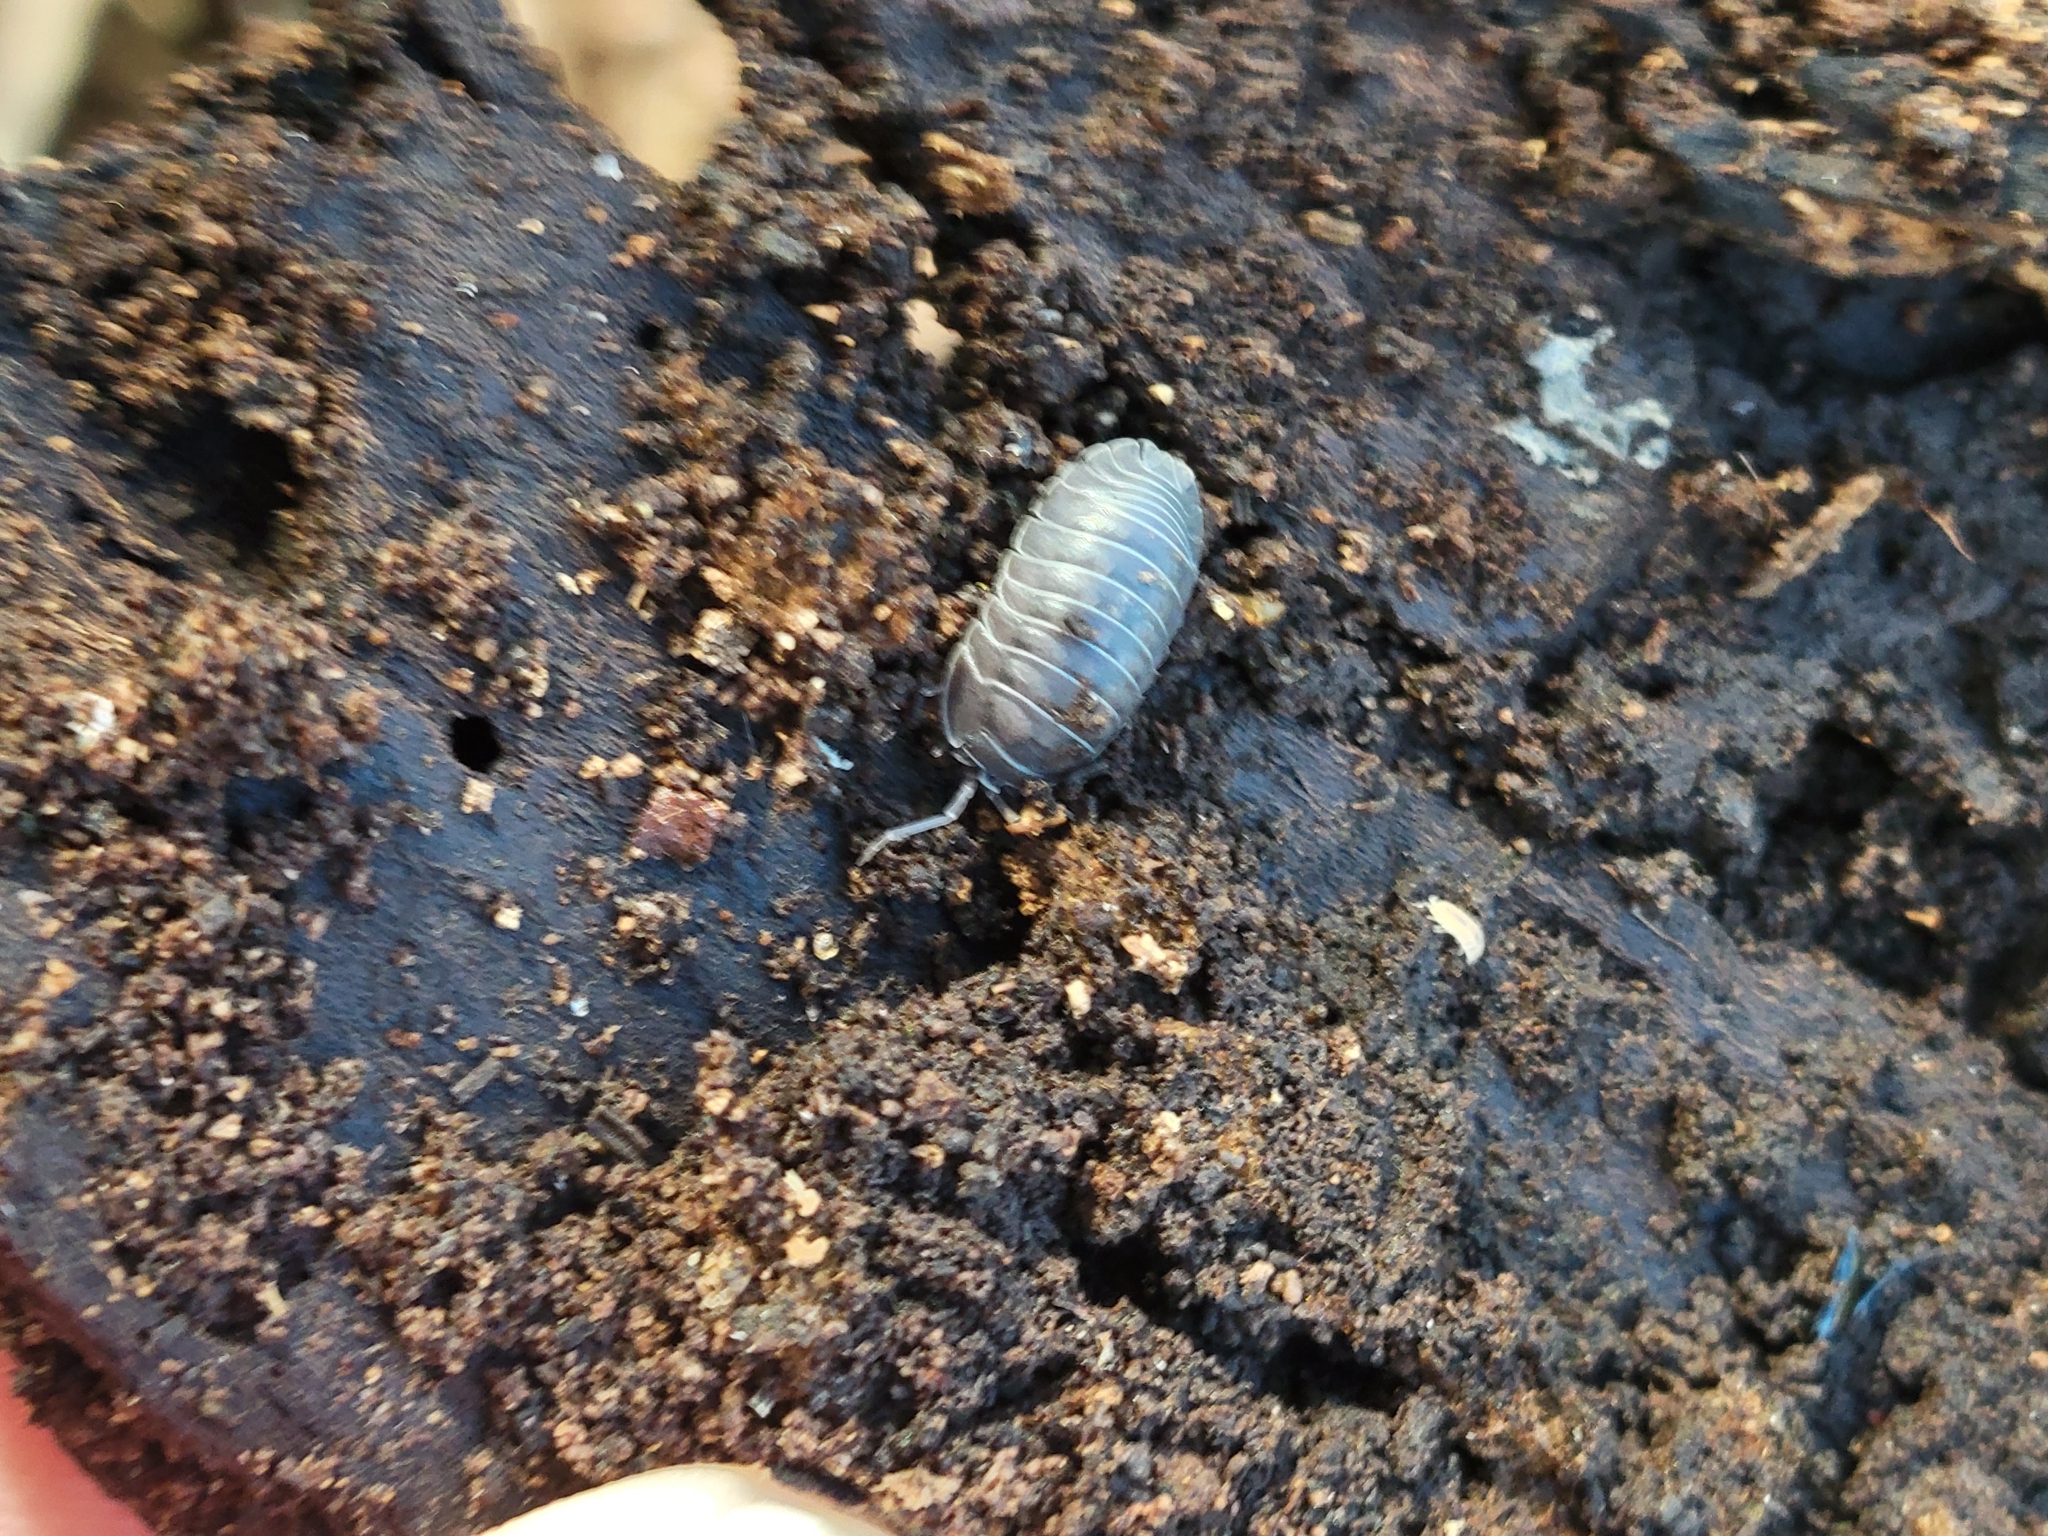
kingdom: Animalia
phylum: Arthropoda
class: Malacostraca
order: Isopoda
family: Armadillidiidae
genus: Armadillidium
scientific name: Armadillidium nasatum
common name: Isopod
